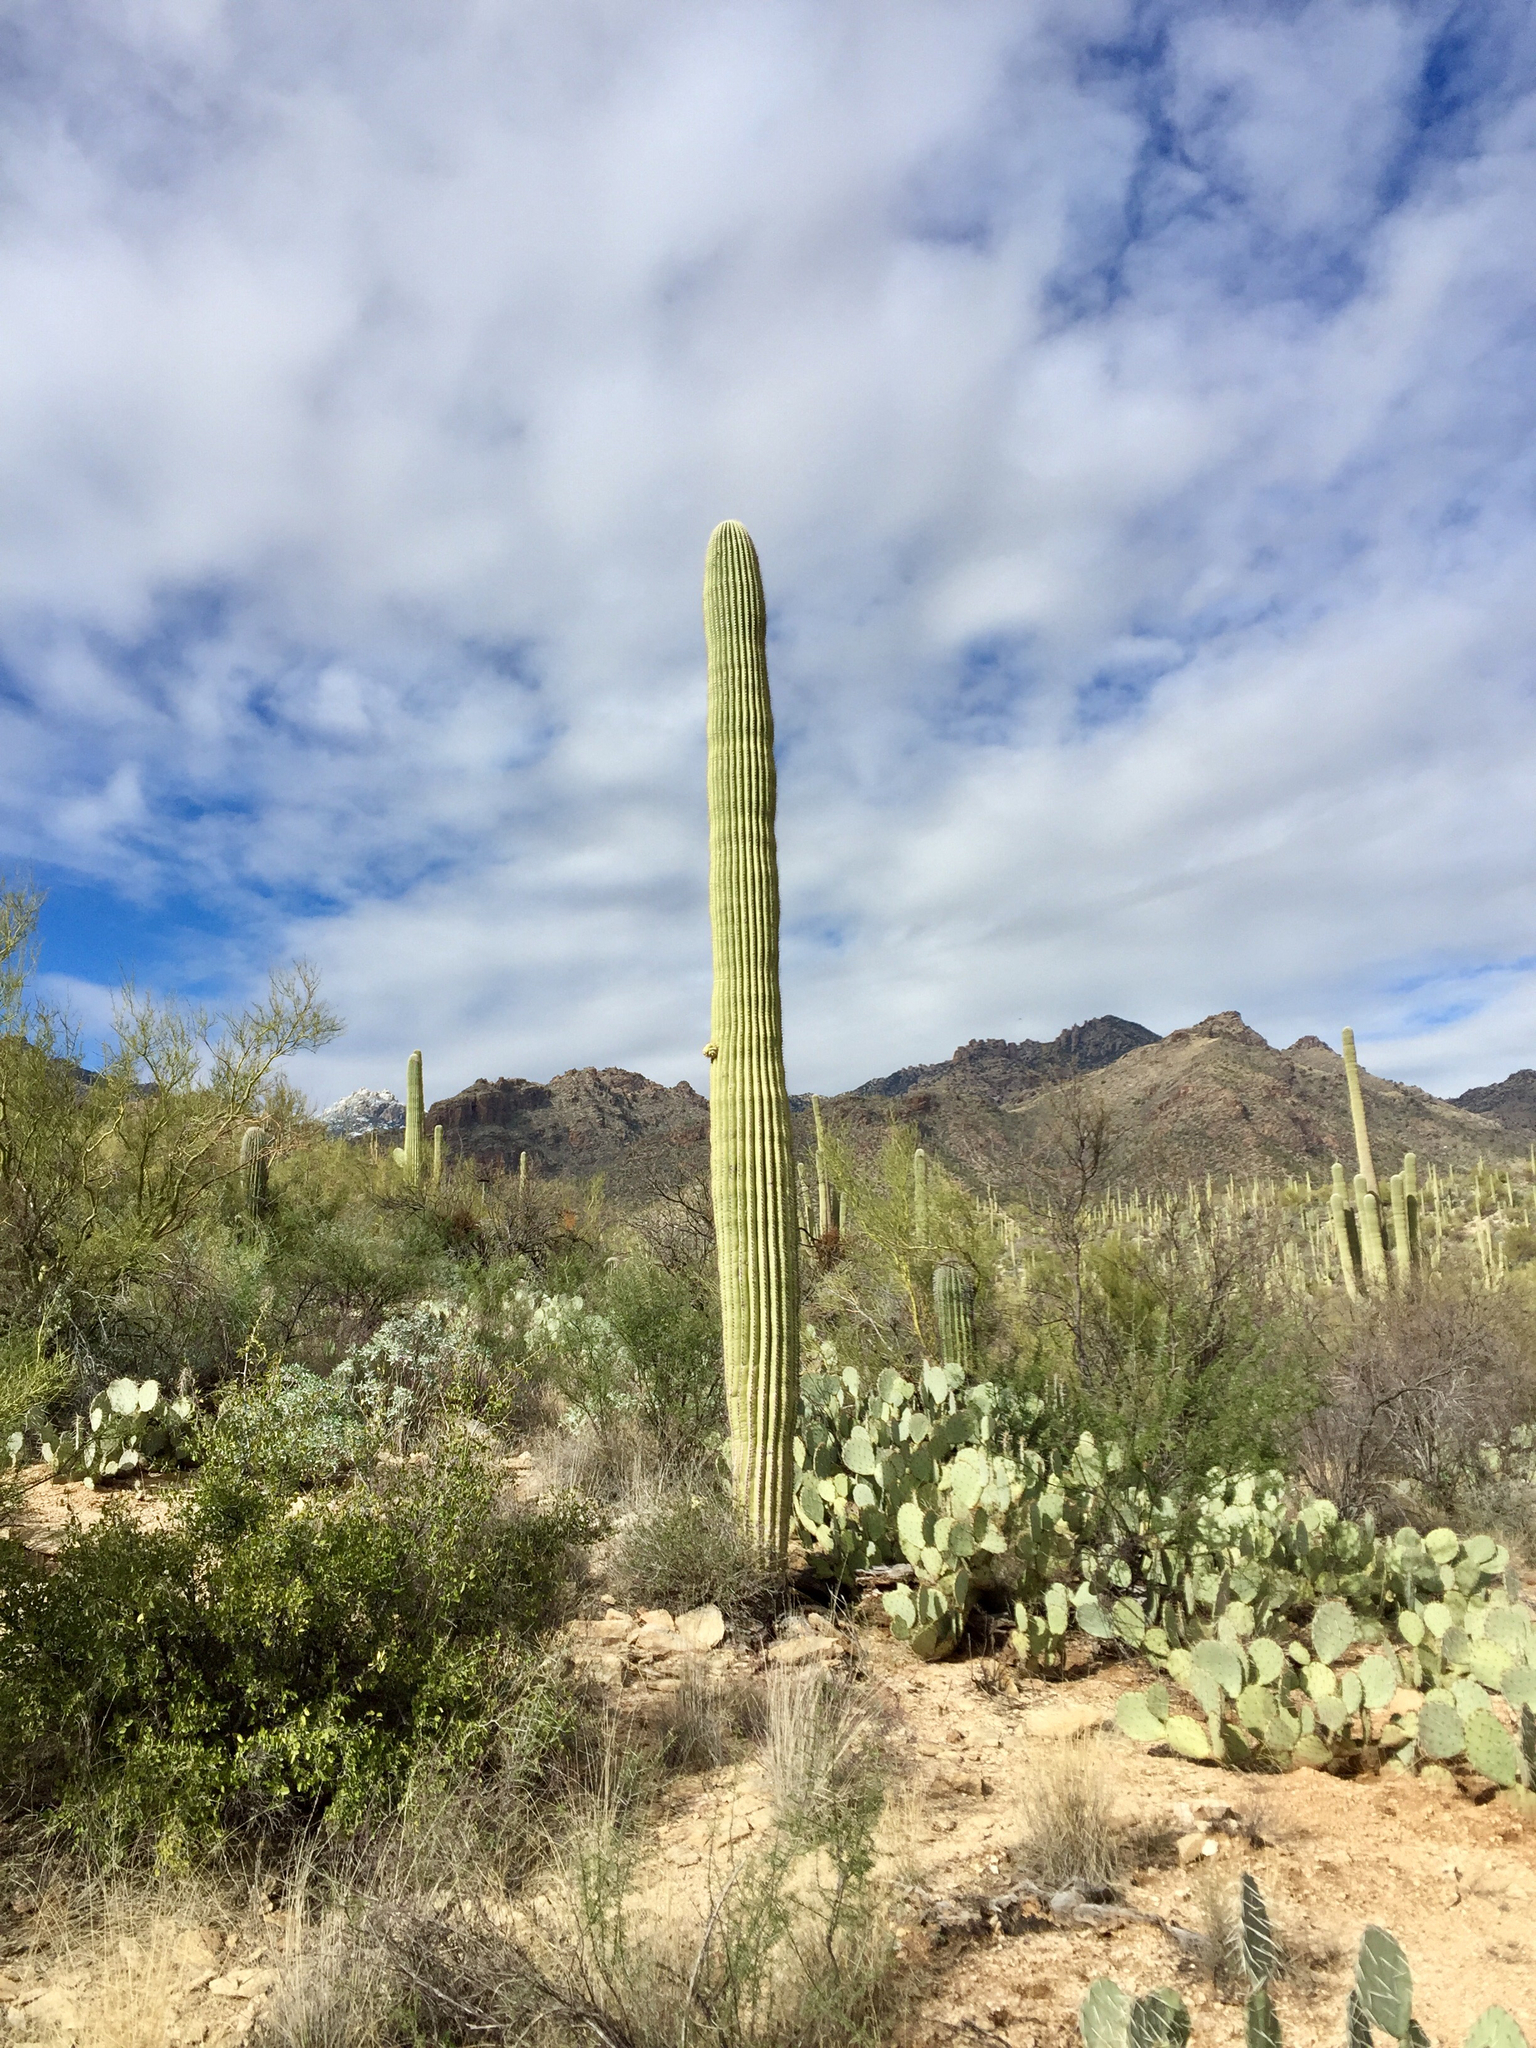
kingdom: Plantae
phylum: Tracheophyta
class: Magnoliopsida
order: Caryophyllales
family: Cactaceae
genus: Carnegiea
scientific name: Carnegiea gigantea
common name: Saguaro
